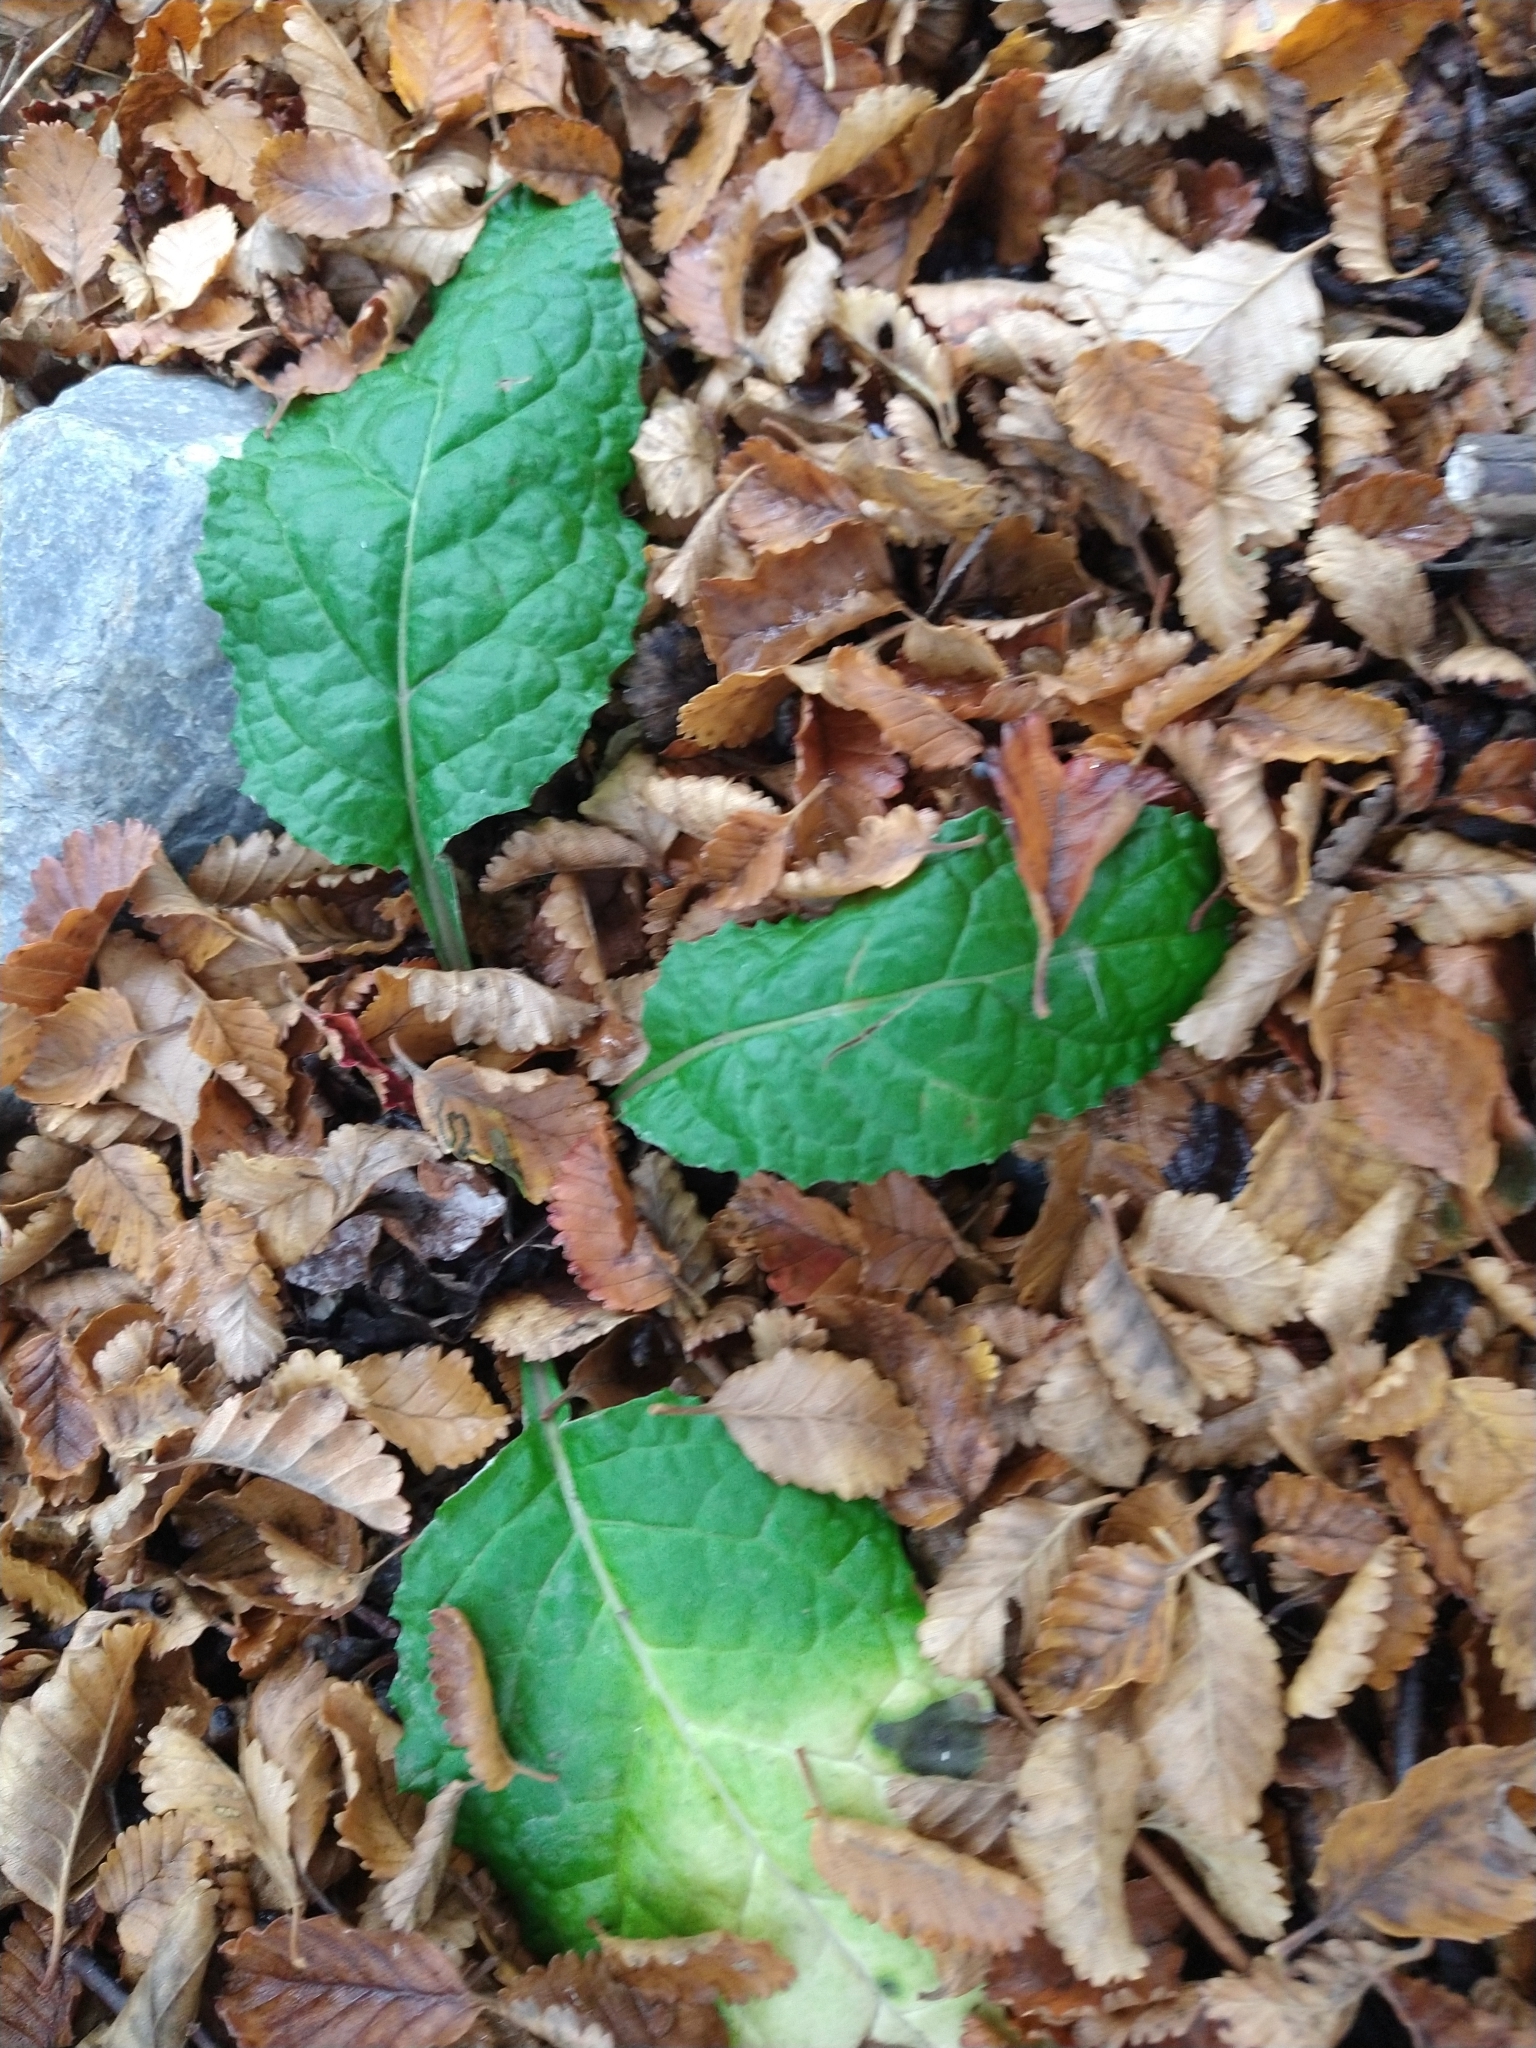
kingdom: Plantae
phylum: Tracheophyta
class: Magnoliopsida
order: Asterales
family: Asteraceae
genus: Adenocaulon
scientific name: Adenocaulon chilense
